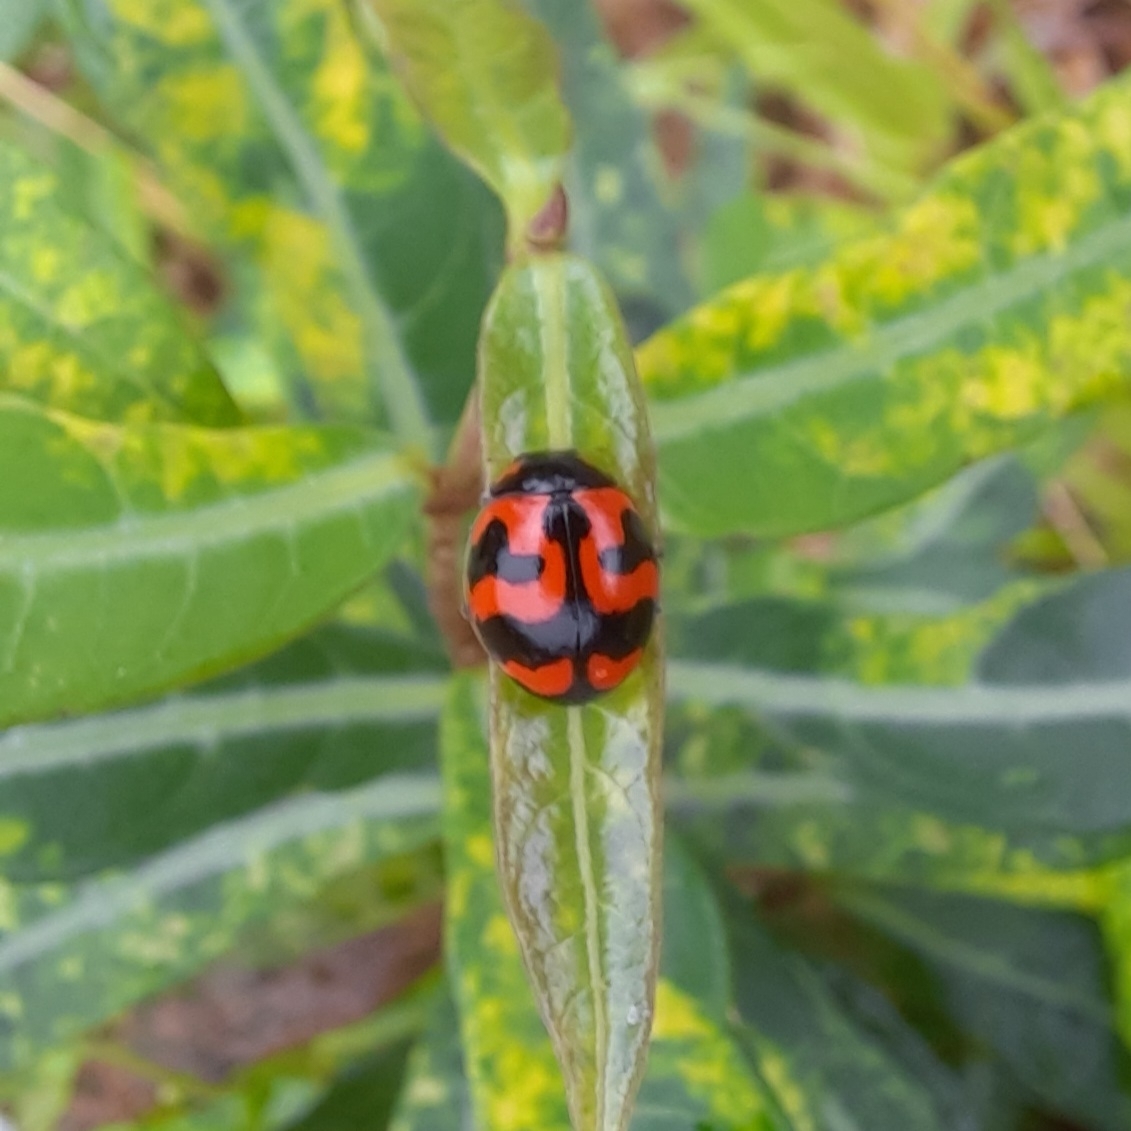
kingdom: Animalia
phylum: Arthropoda
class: Insecta
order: Coleoptera
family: Coccinellidae
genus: Coccinella
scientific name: Coccinella transversalis
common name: Transverse lady beetle
